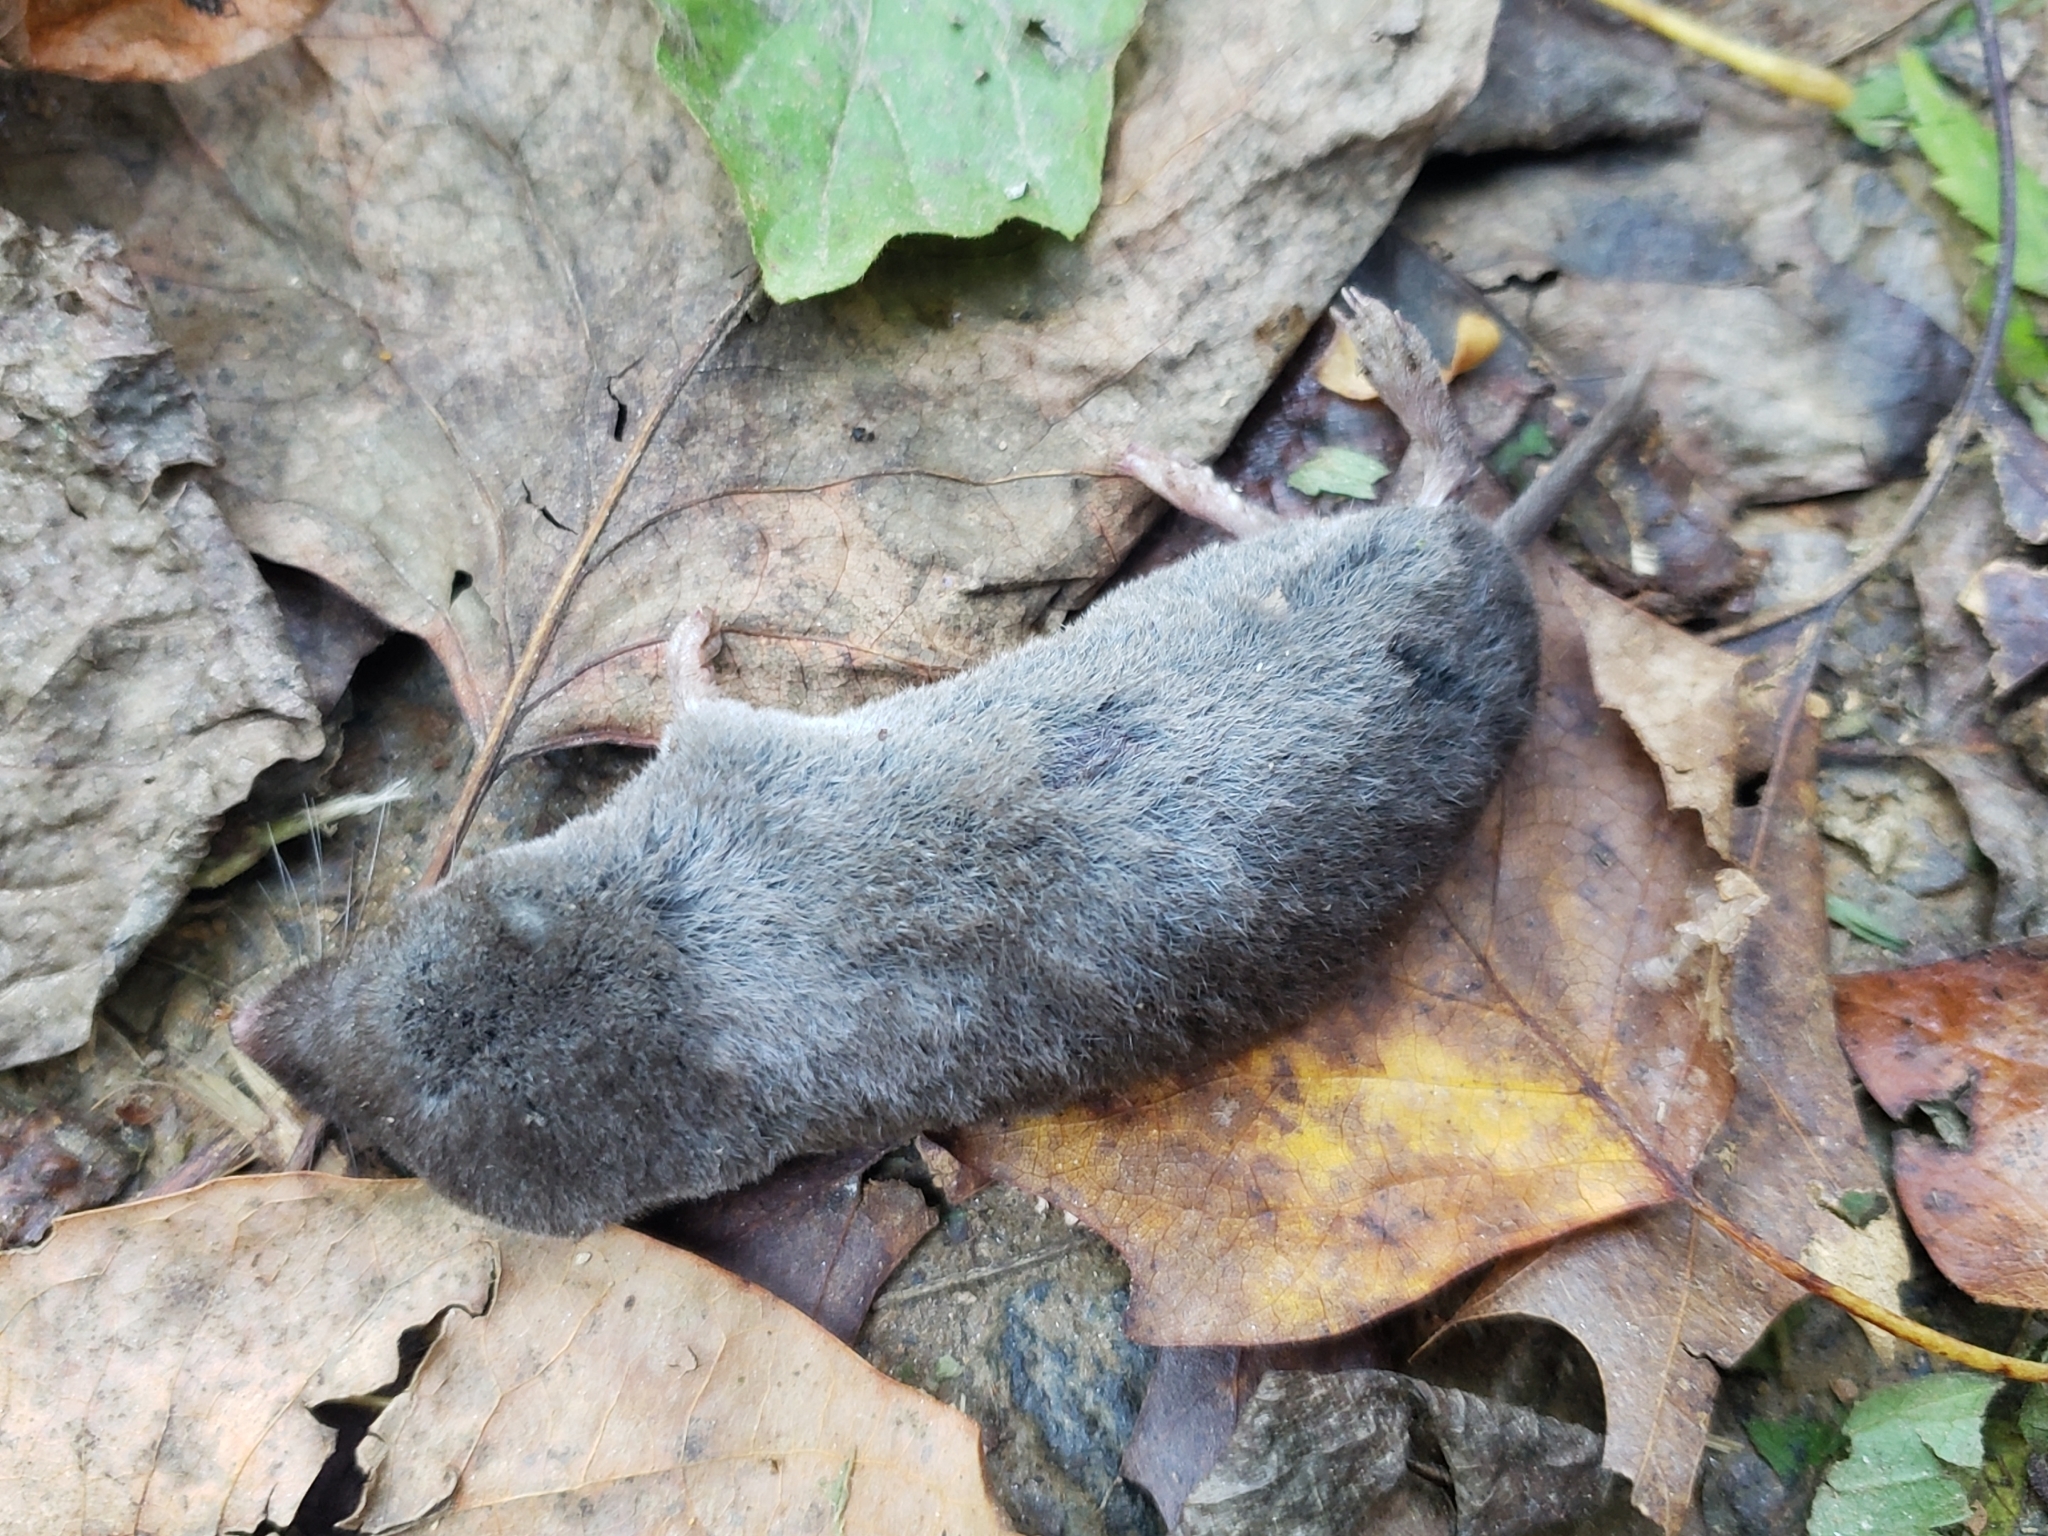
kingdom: Animalia
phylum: Chordata
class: Mammalia
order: Soricomorpha
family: Soricidae
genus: Blarina
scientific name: Blarina brevicauda
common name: Northern short-tailed shrew
